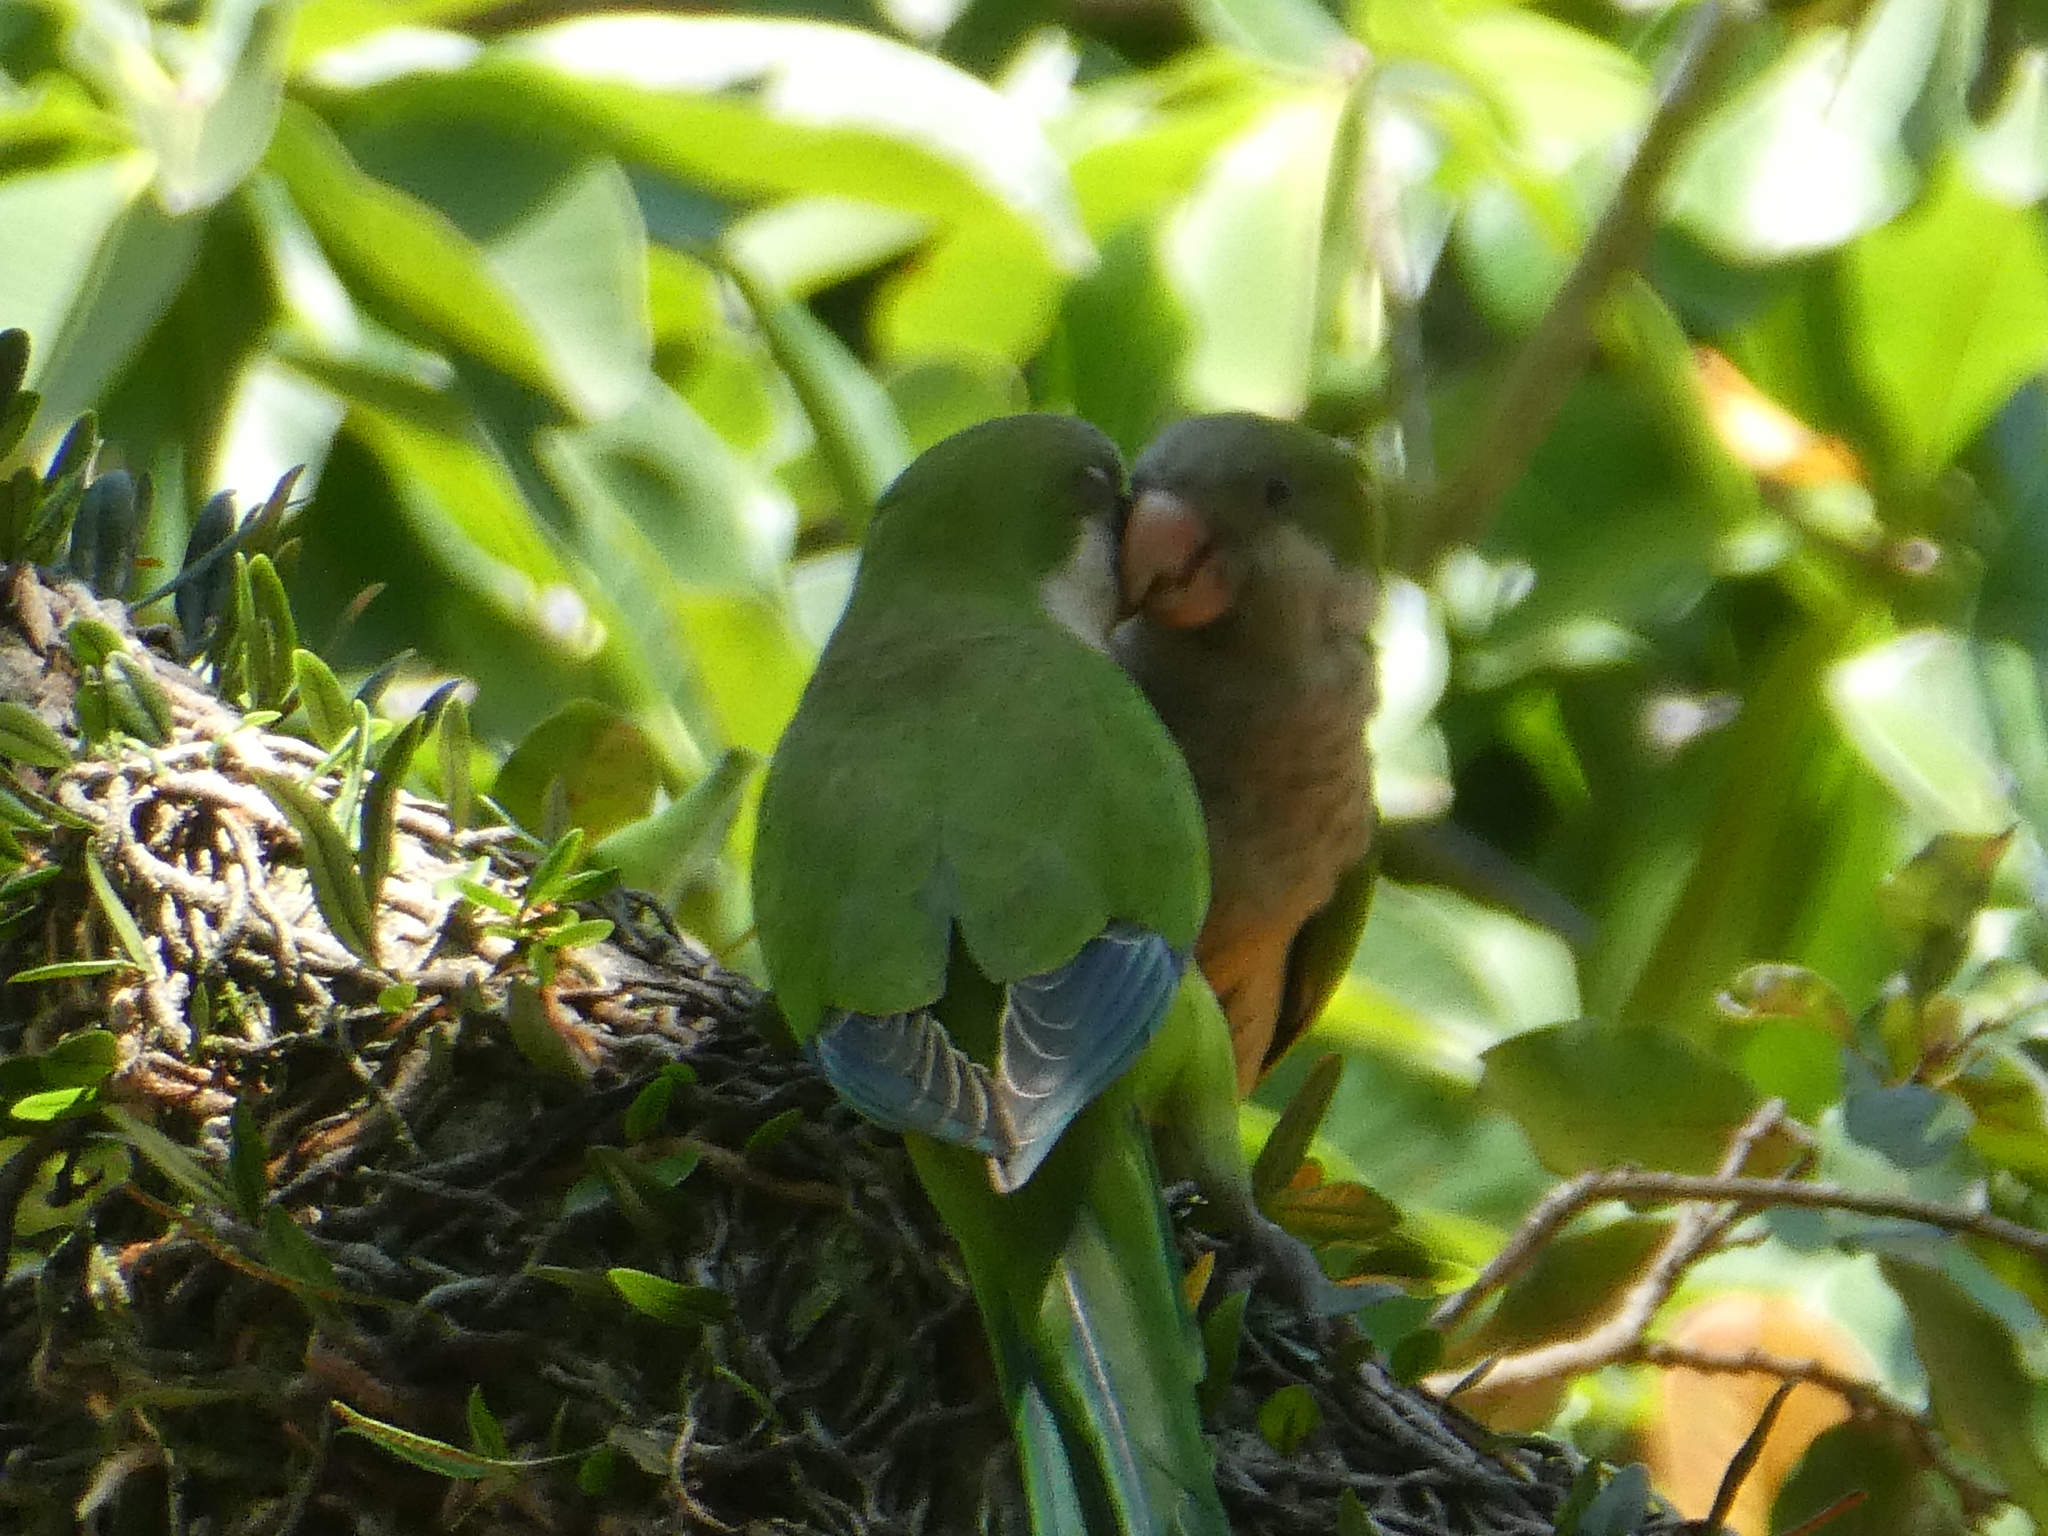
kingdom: Animalia
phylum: Chordata
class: Aves
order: Psittaciformes
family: Psittacidae
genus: Myiopsitta
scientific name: Myiopsitta monachus
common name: Monk parakeet
